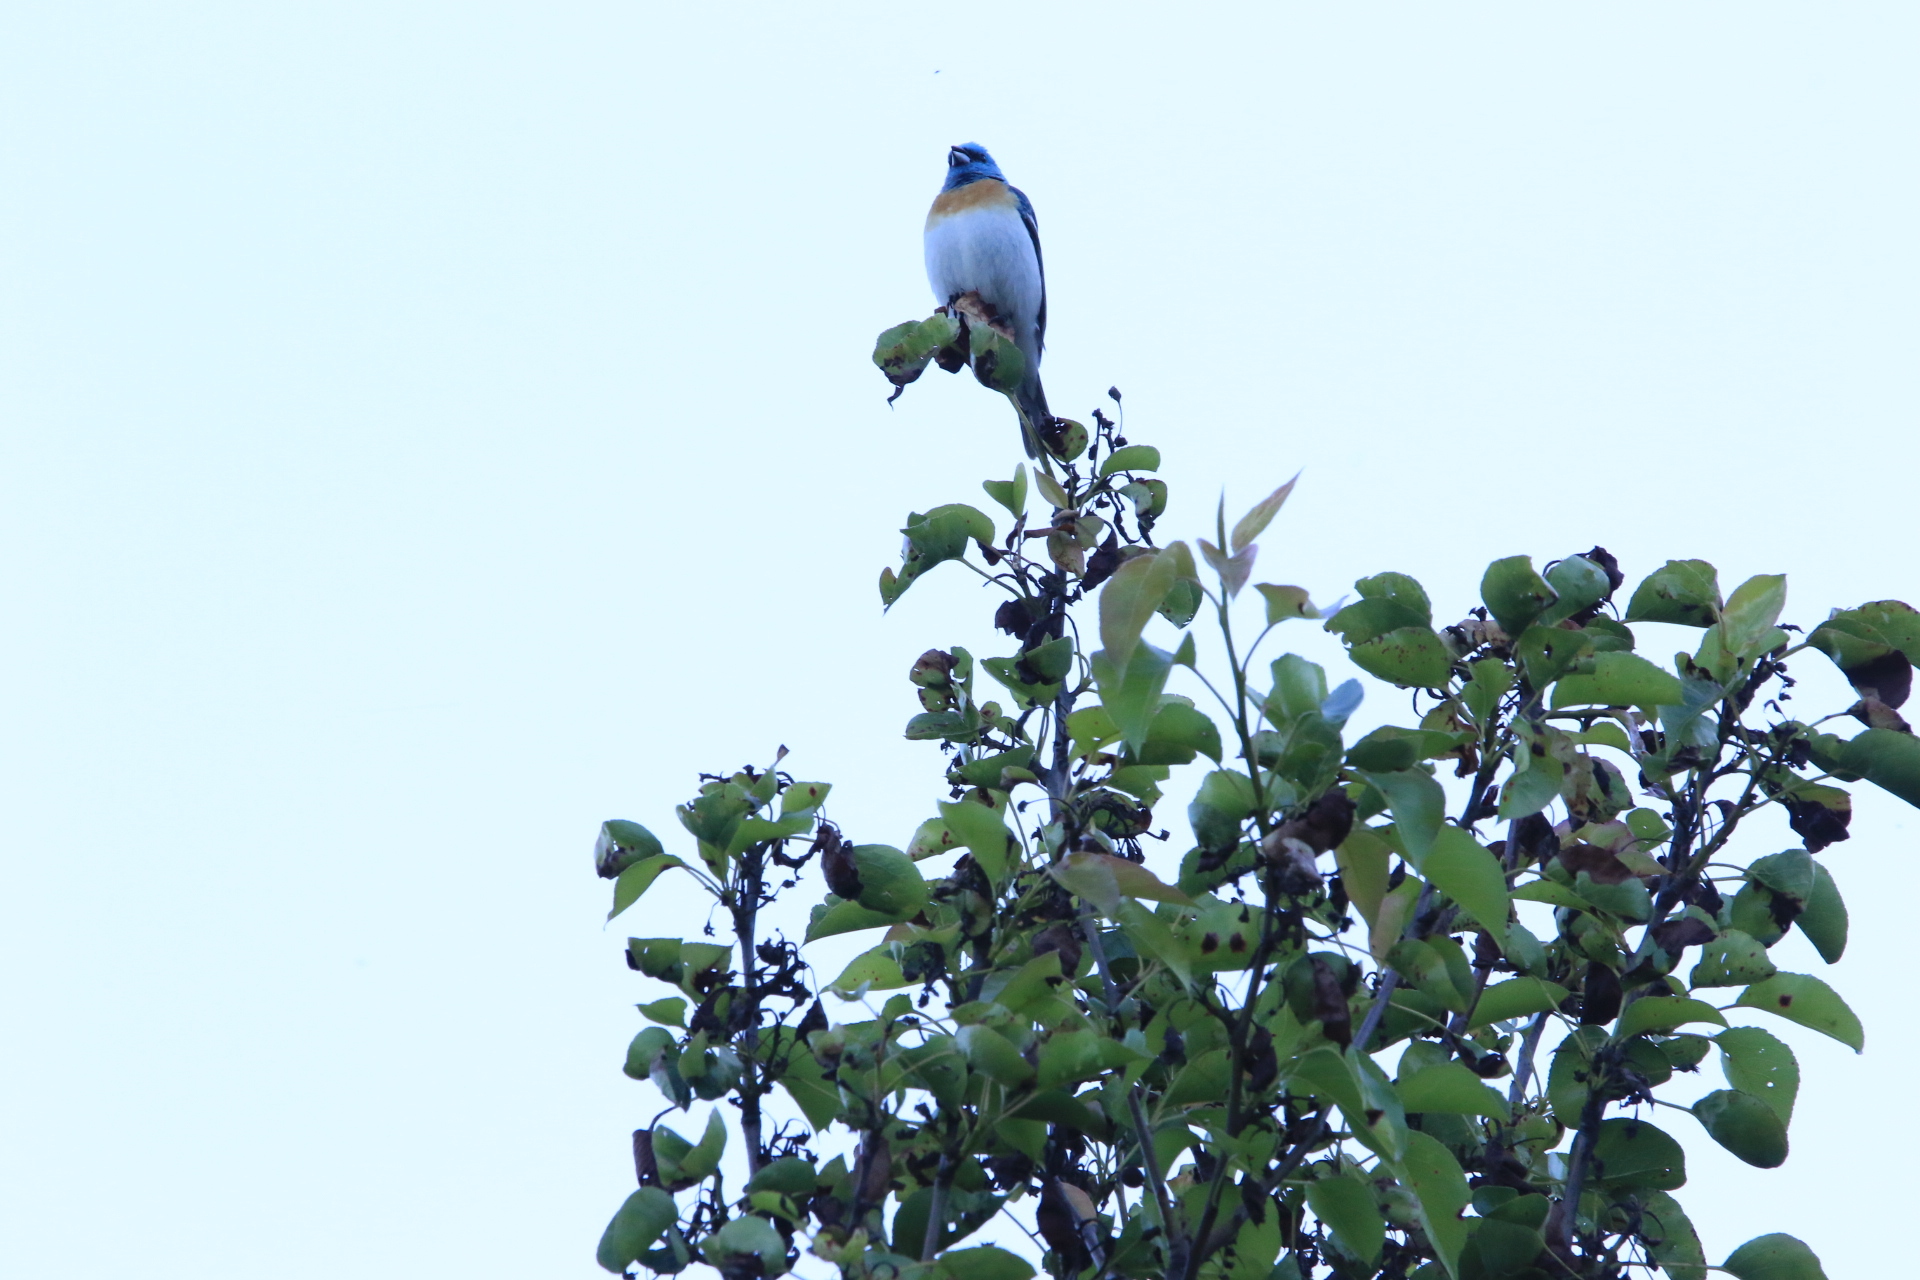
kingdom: Animalia
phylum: Chordata
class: Aves
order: Passeriformes
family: Cardinalidae
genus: Passerina
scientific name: Passerina amoena
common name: Lazuli bunting
